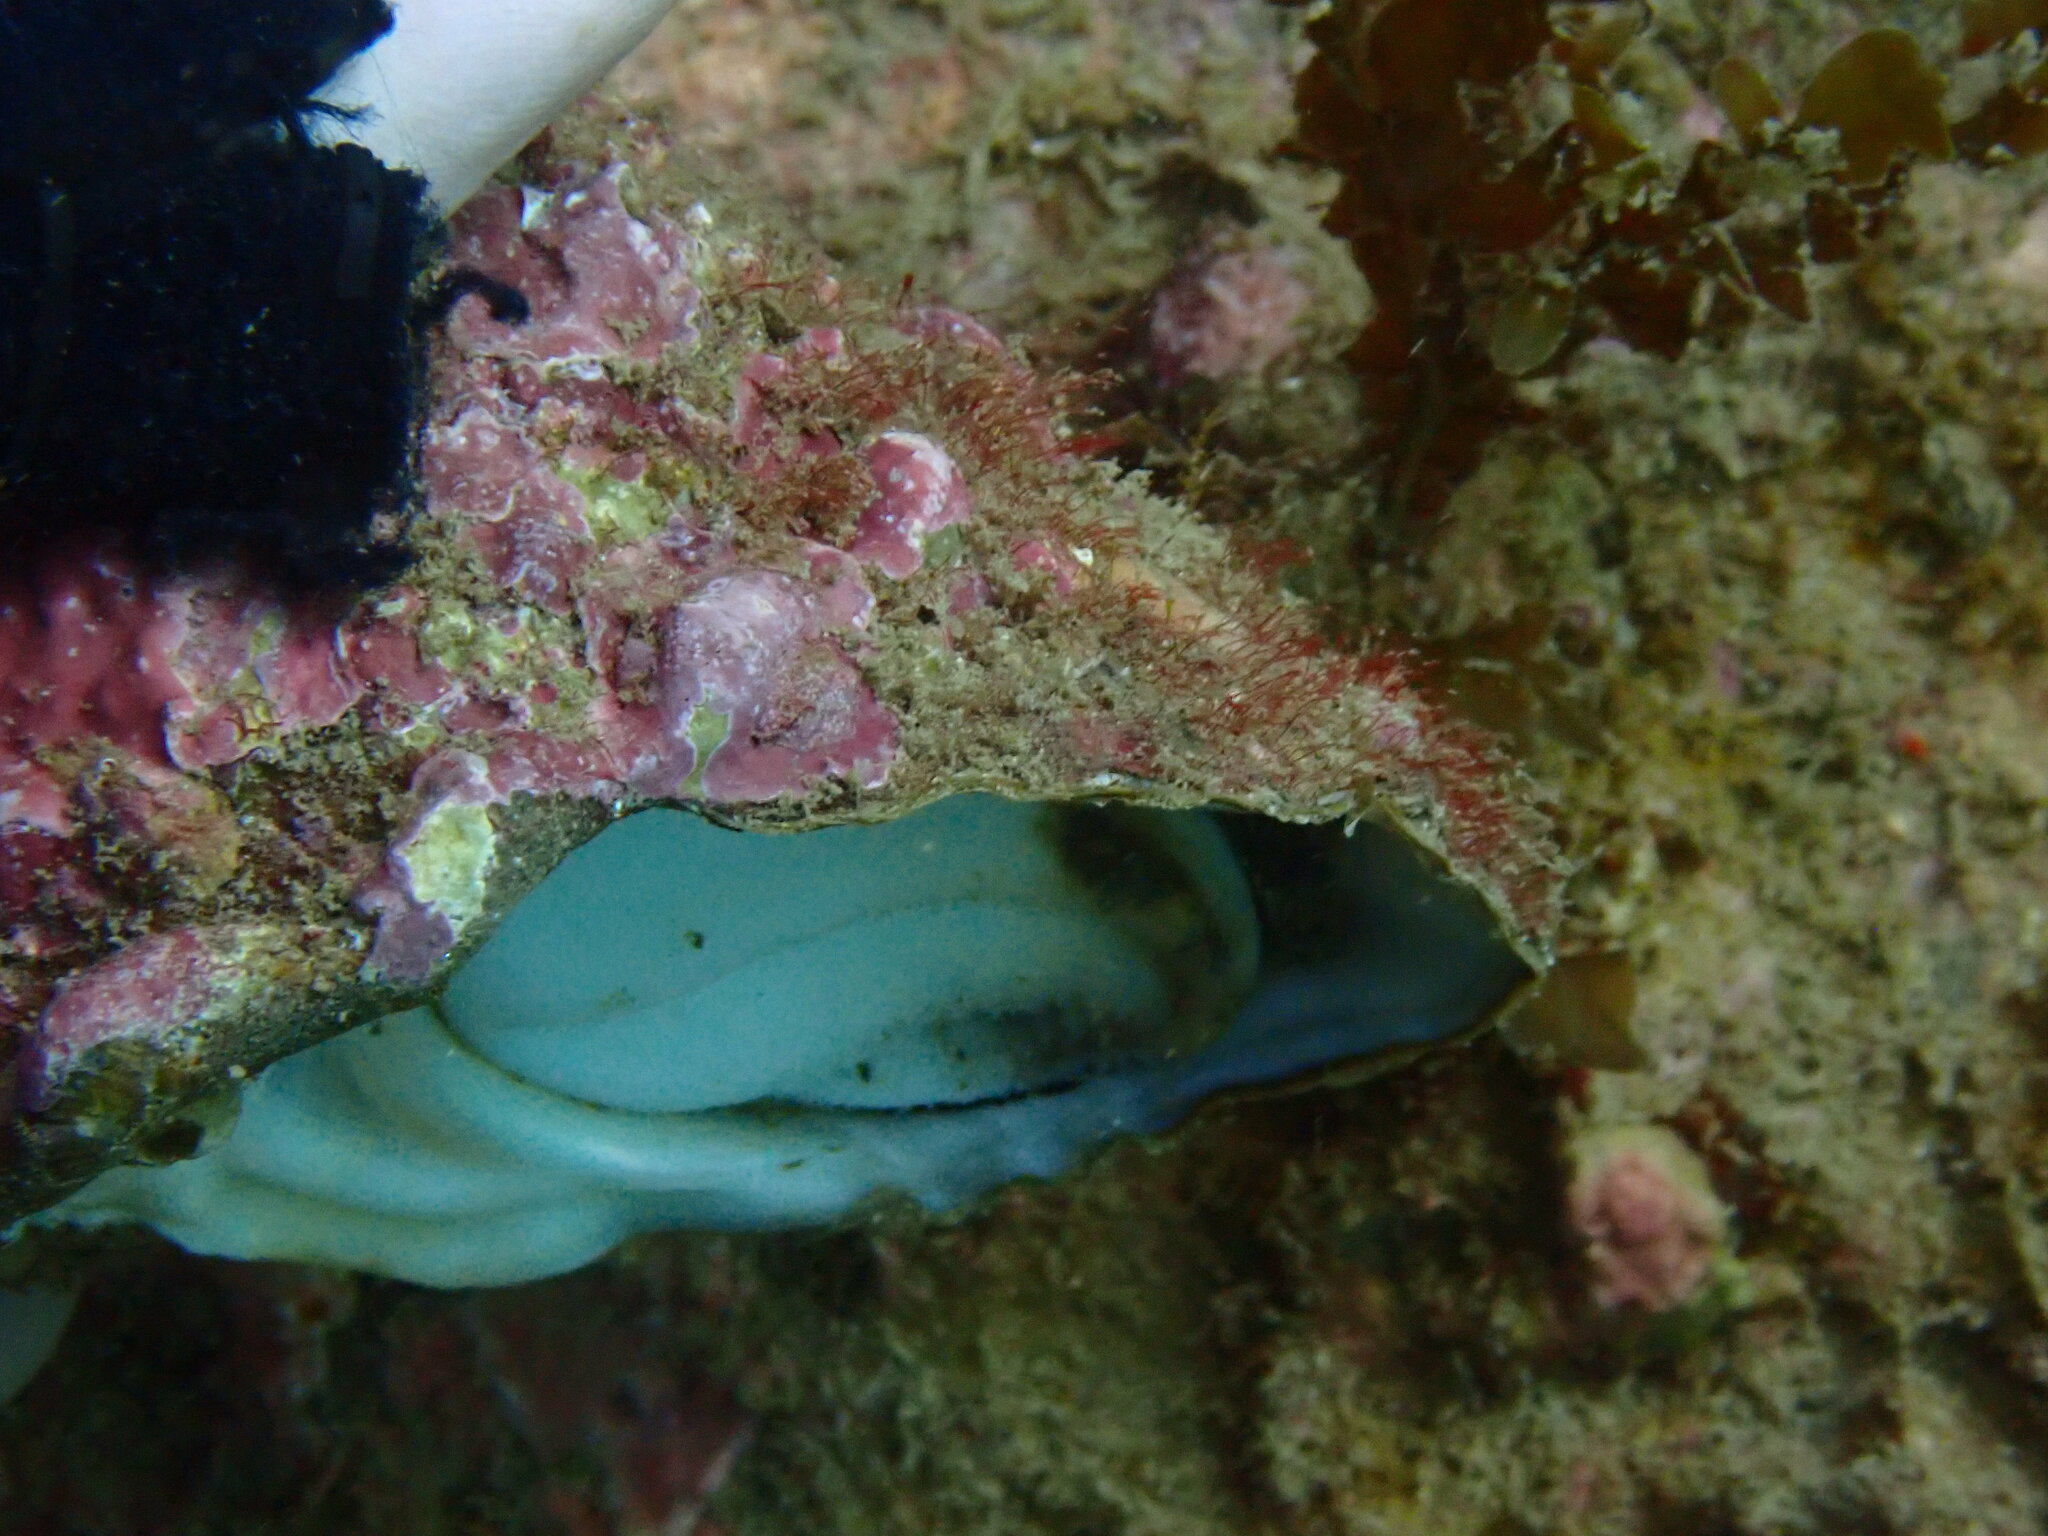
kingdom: Animalia
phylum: Mollusca
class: Gastropoda
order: Trochida
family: Turbinidae
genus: Megastraea
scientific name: Megastraea undosa
